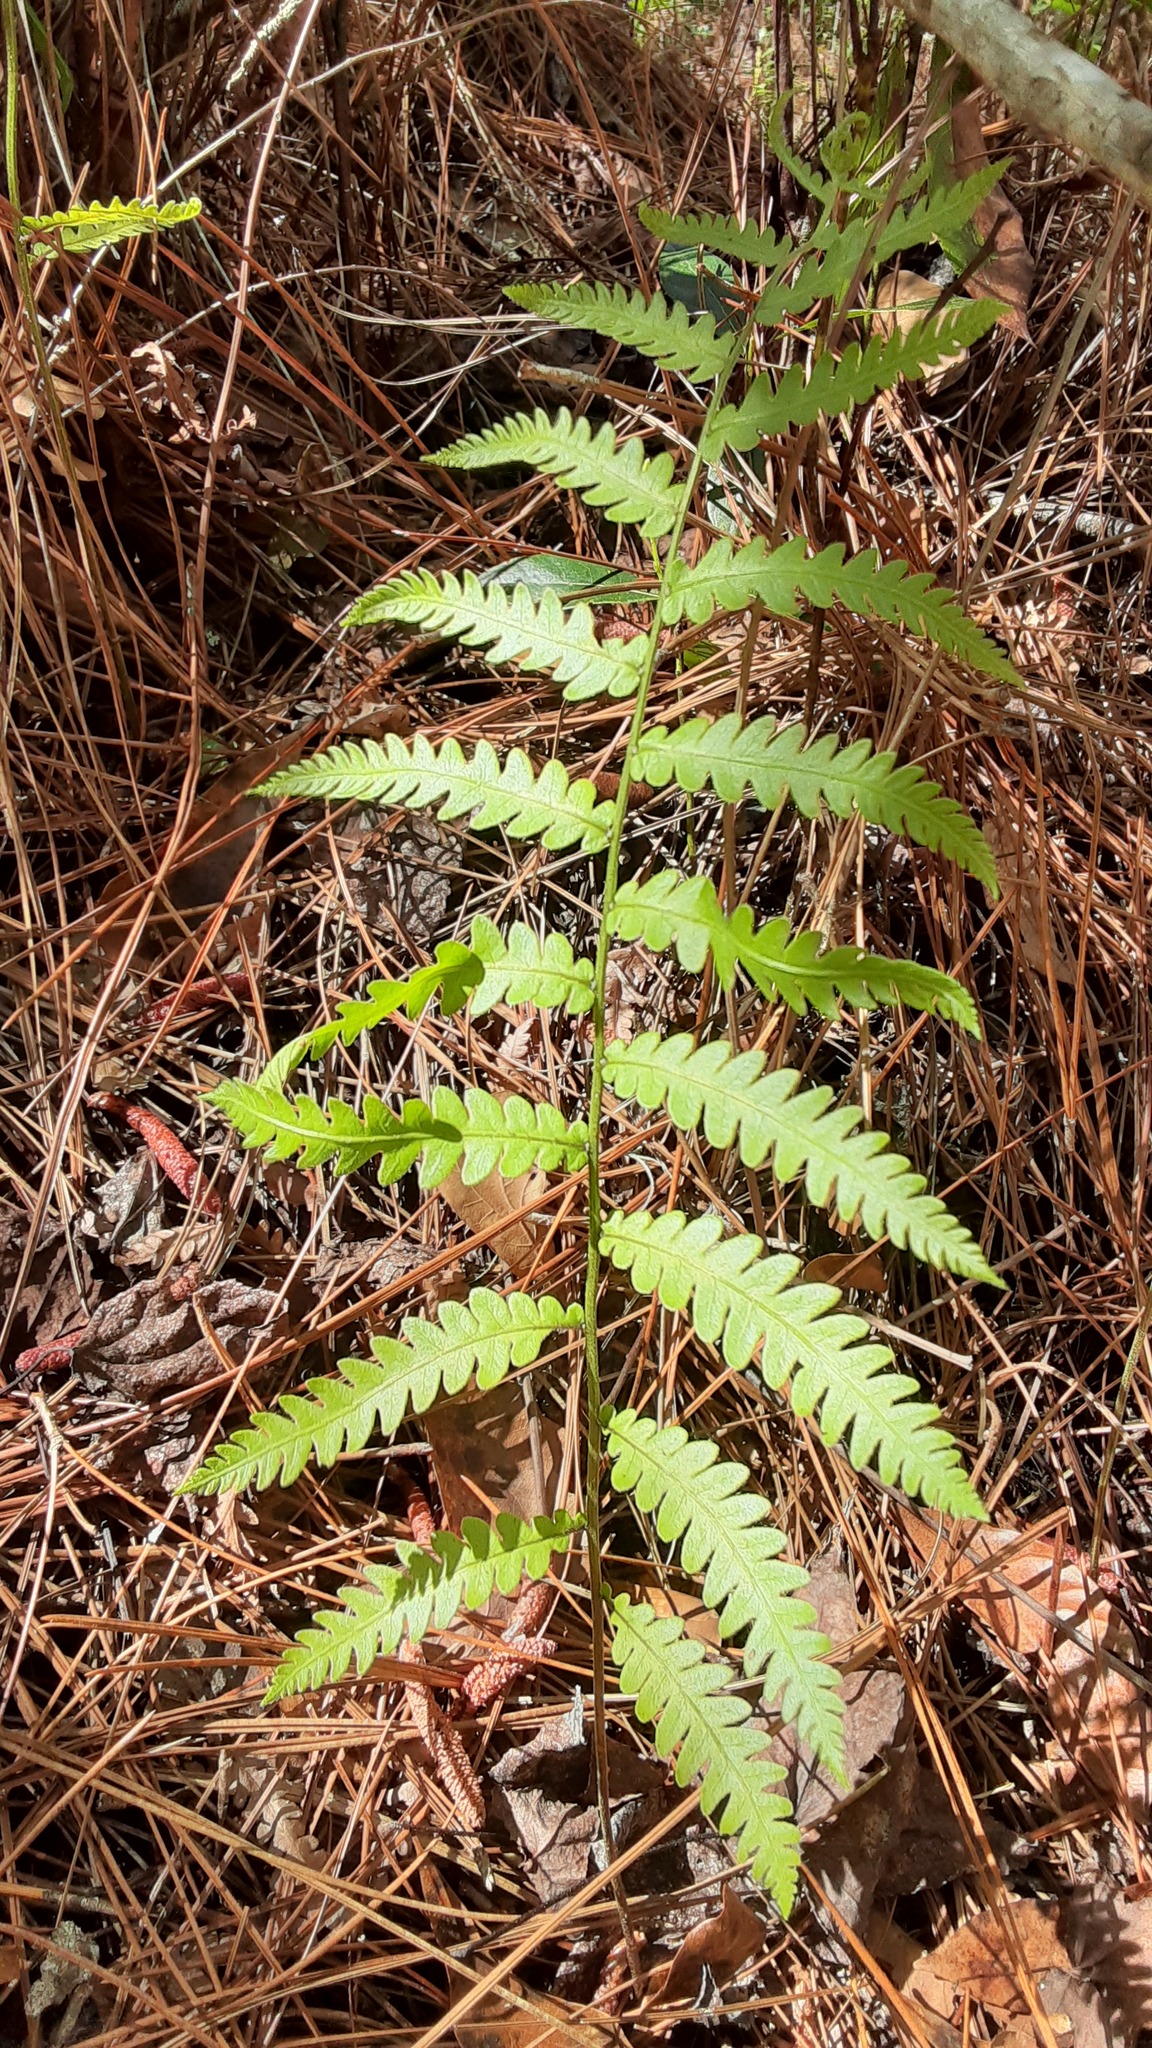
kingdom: Plantae
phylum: Tracheophyta
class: Polypodiopsida
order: Polypodiales
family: Blechnaceae
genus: Anchistea
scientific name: Anchistea virginica
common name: Virginia chain fern
